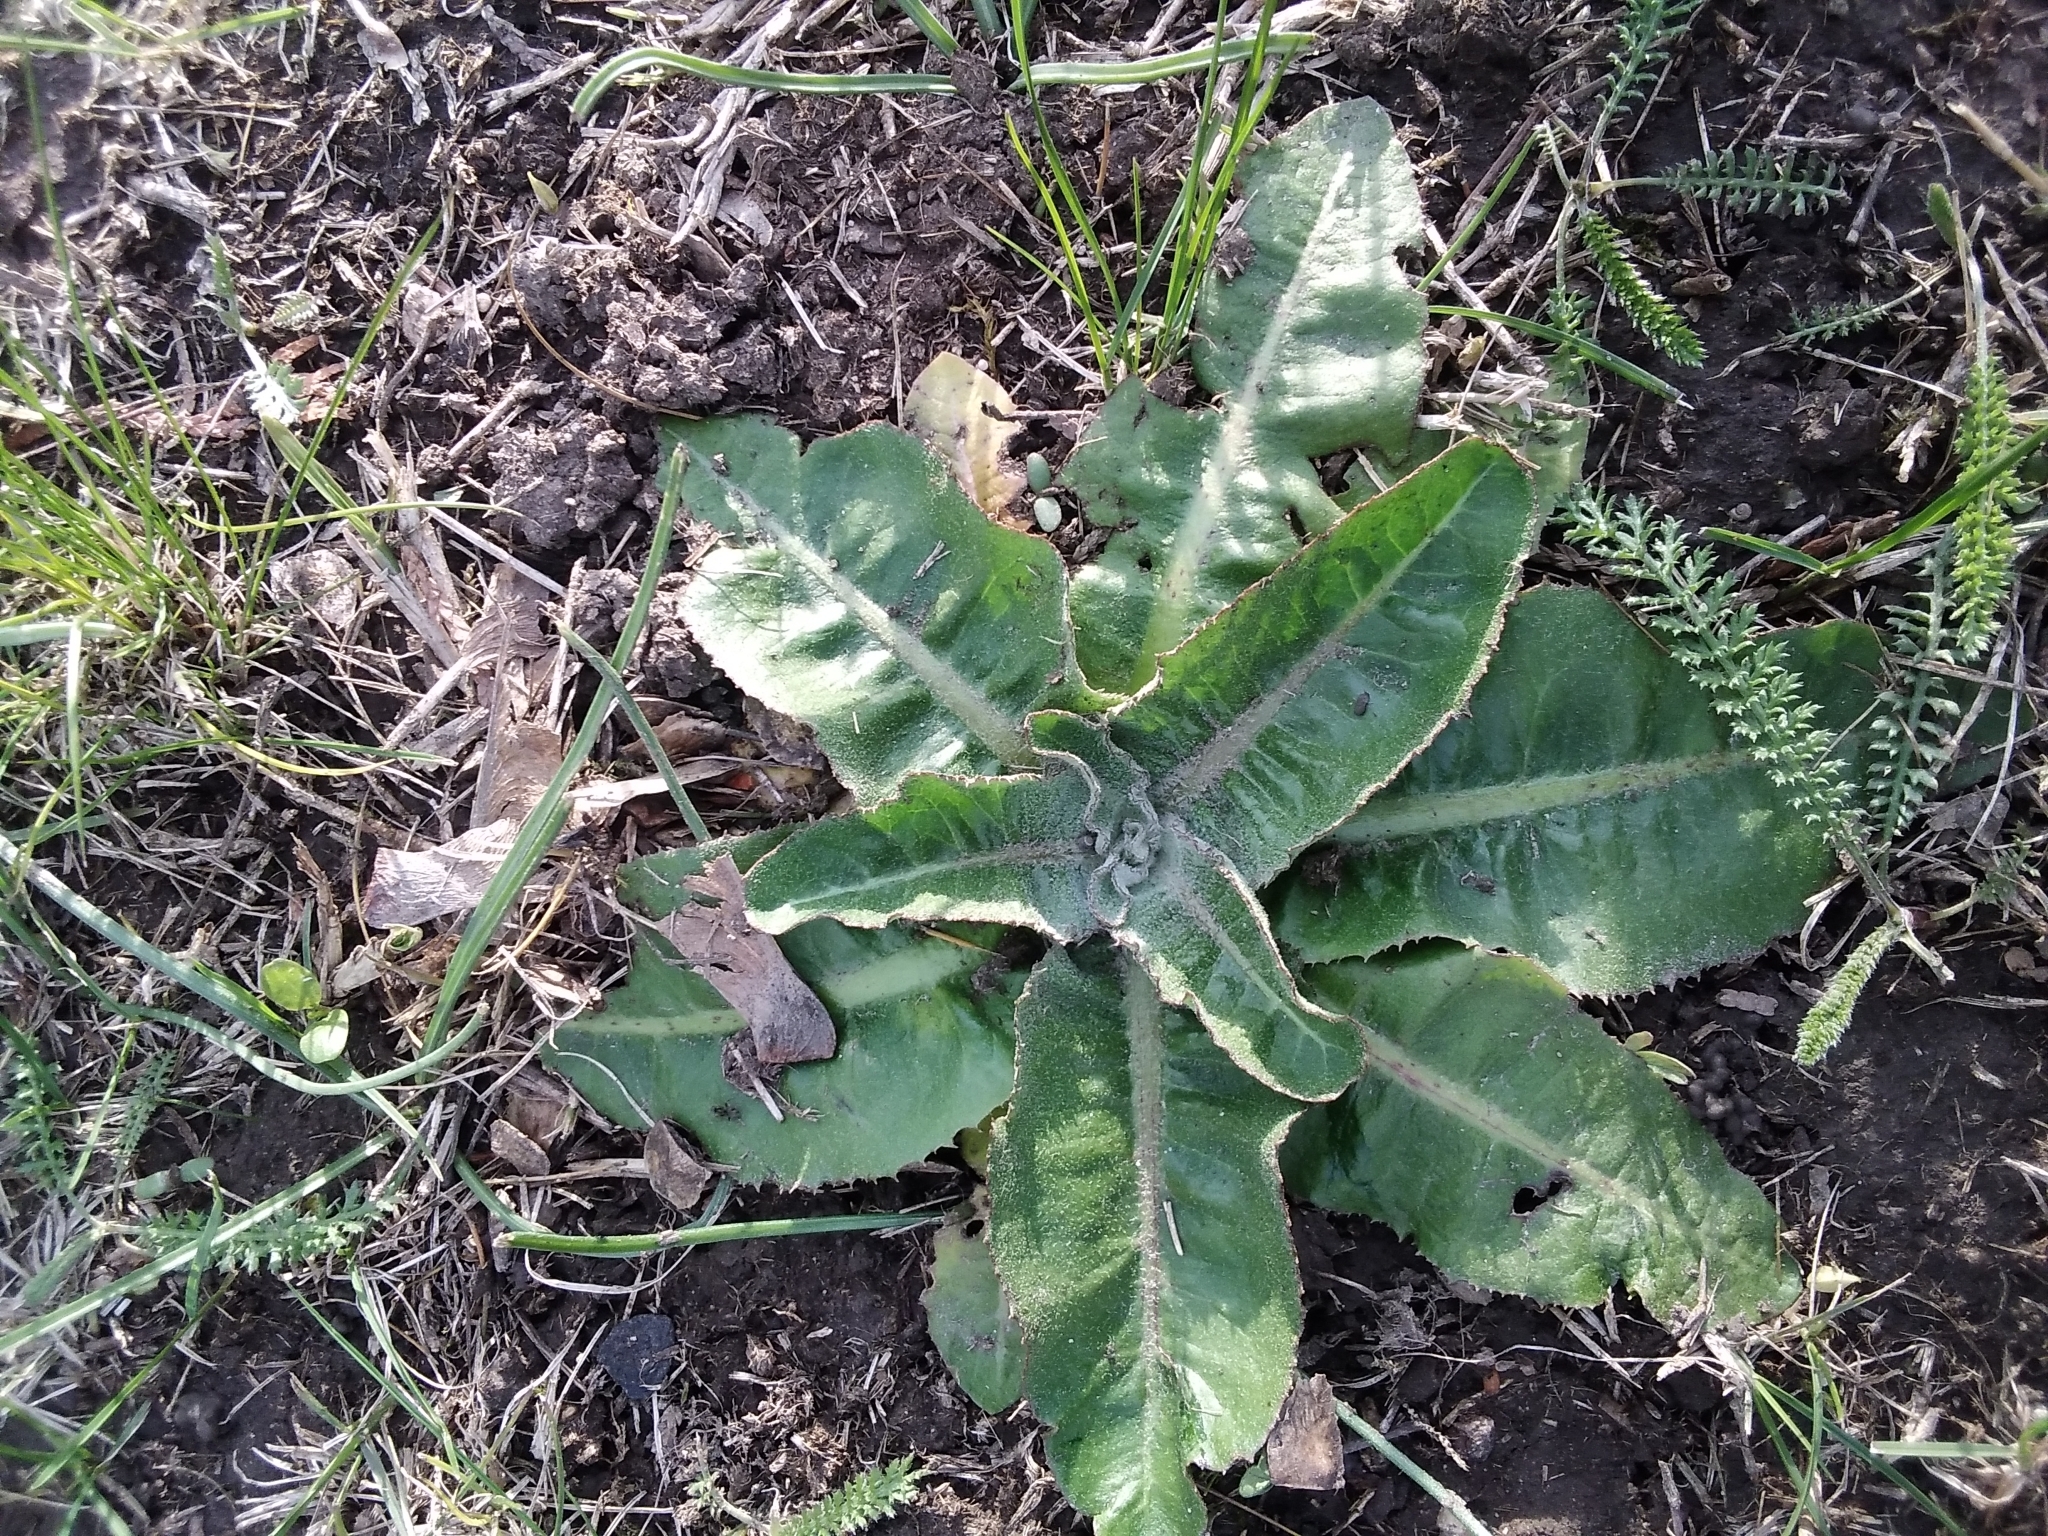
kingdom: Plantae
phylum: Tracheophyta
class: Magnoliopsida
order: Asterales
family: Asteraceae
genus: Taraxacum
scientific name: Taraxacum serotinum
